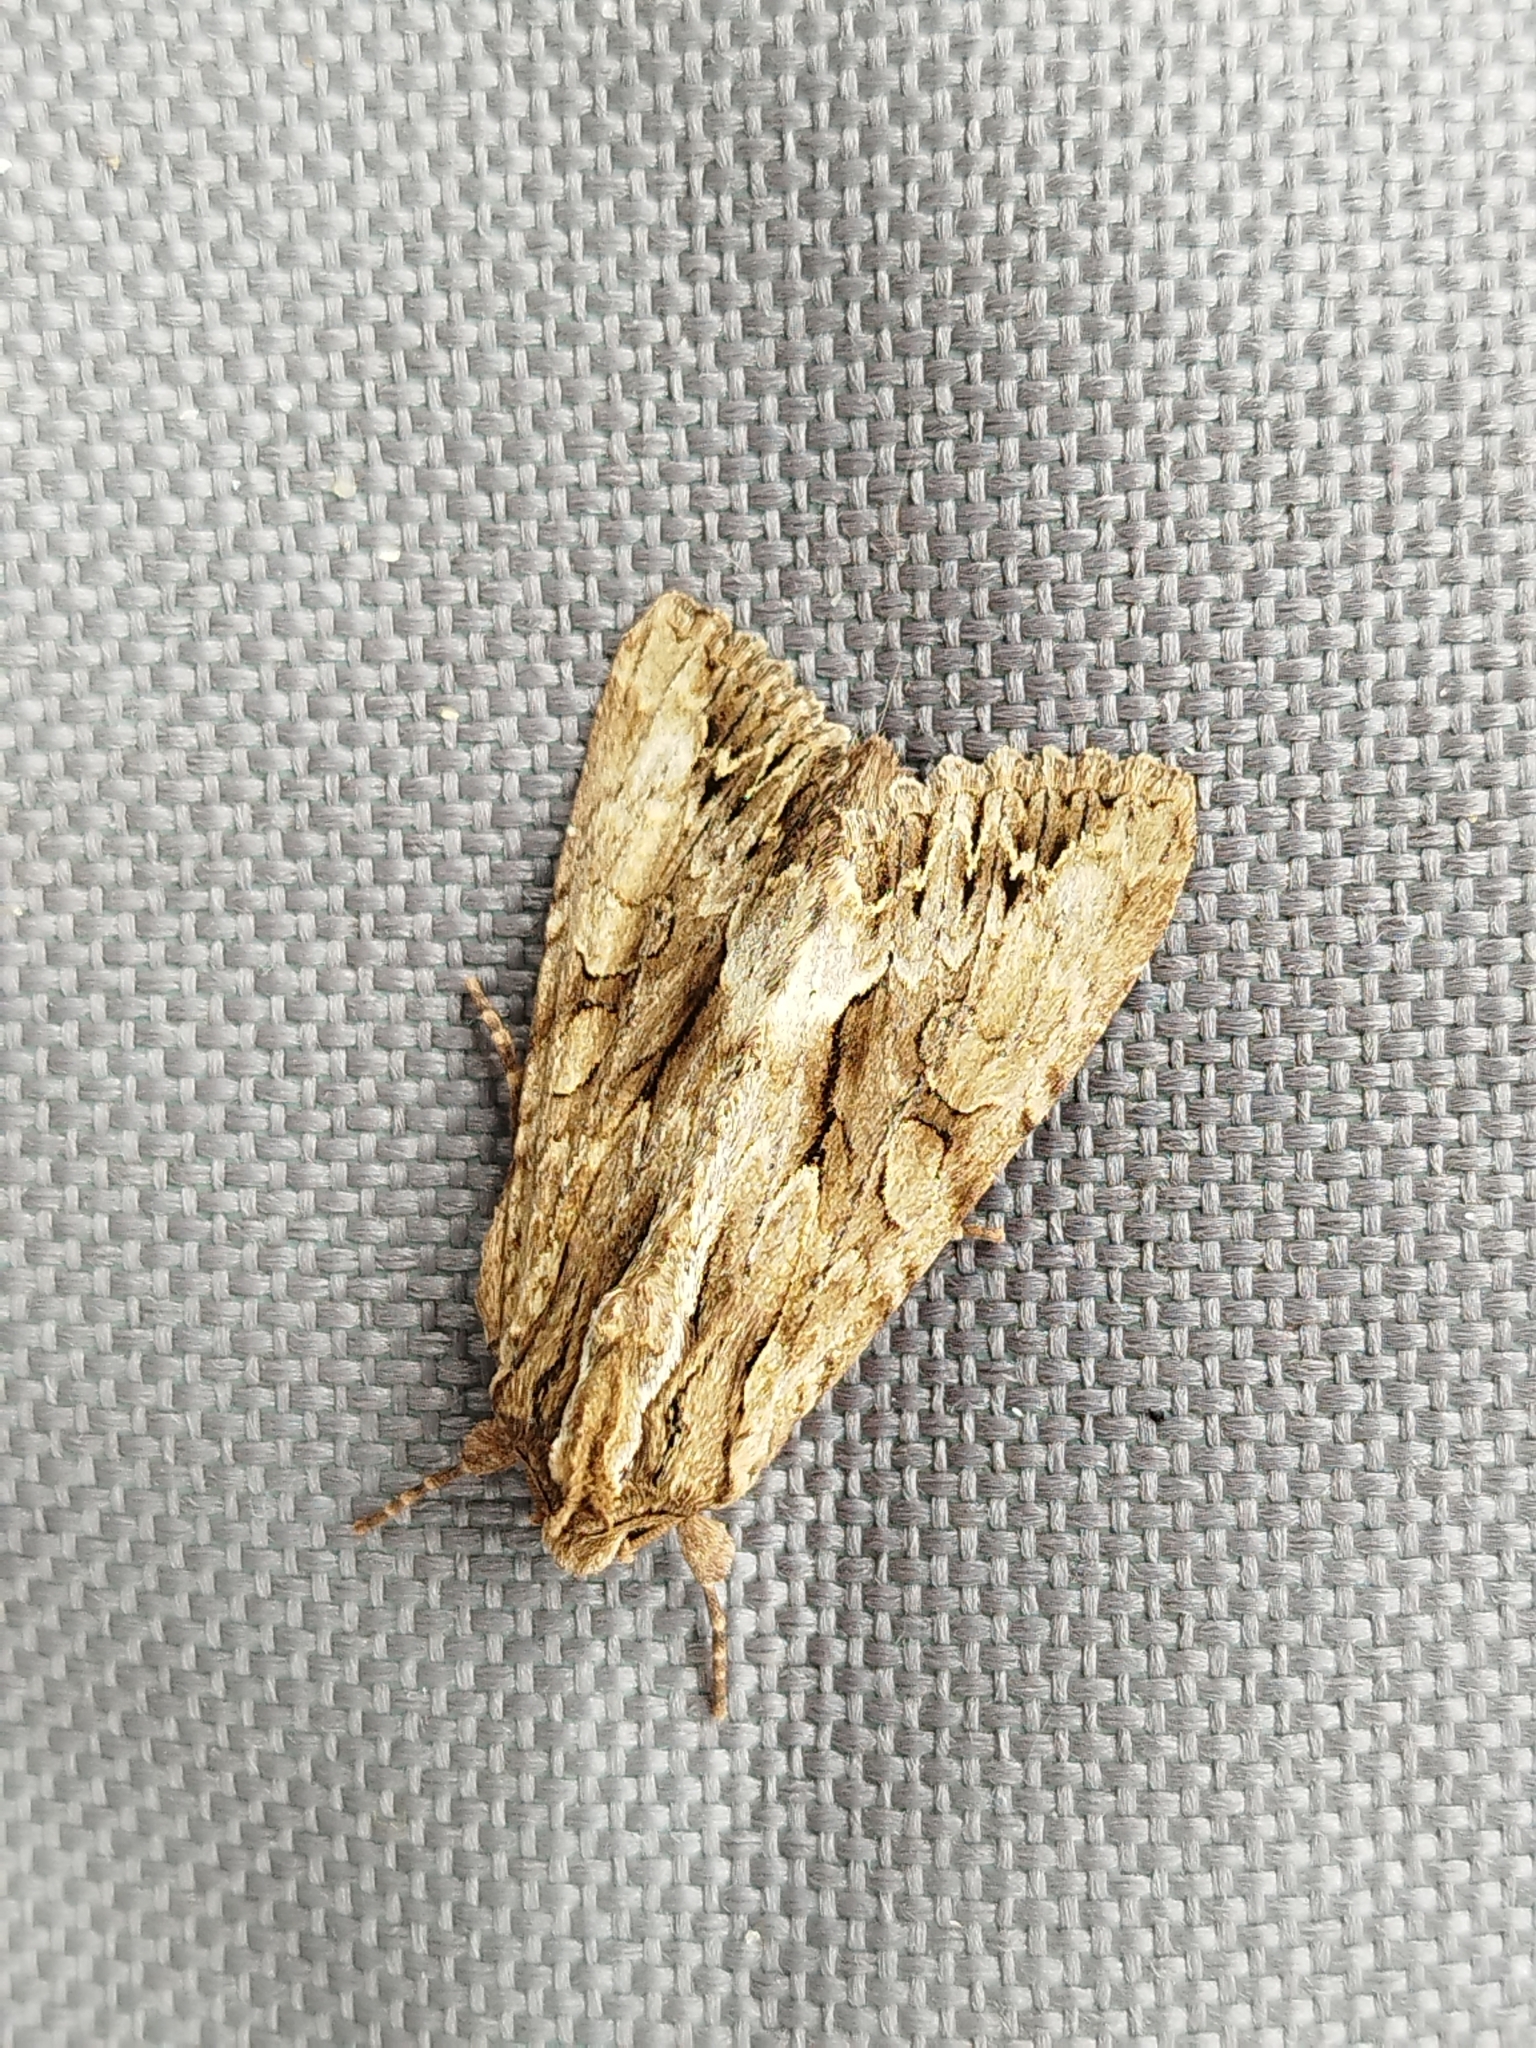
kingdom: Animalia
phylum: Arthropoda
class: Insecta
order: Lepidoptera
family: Noctuidae
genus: Apamea
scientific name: Apamea monoglypha
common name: Dark arches
